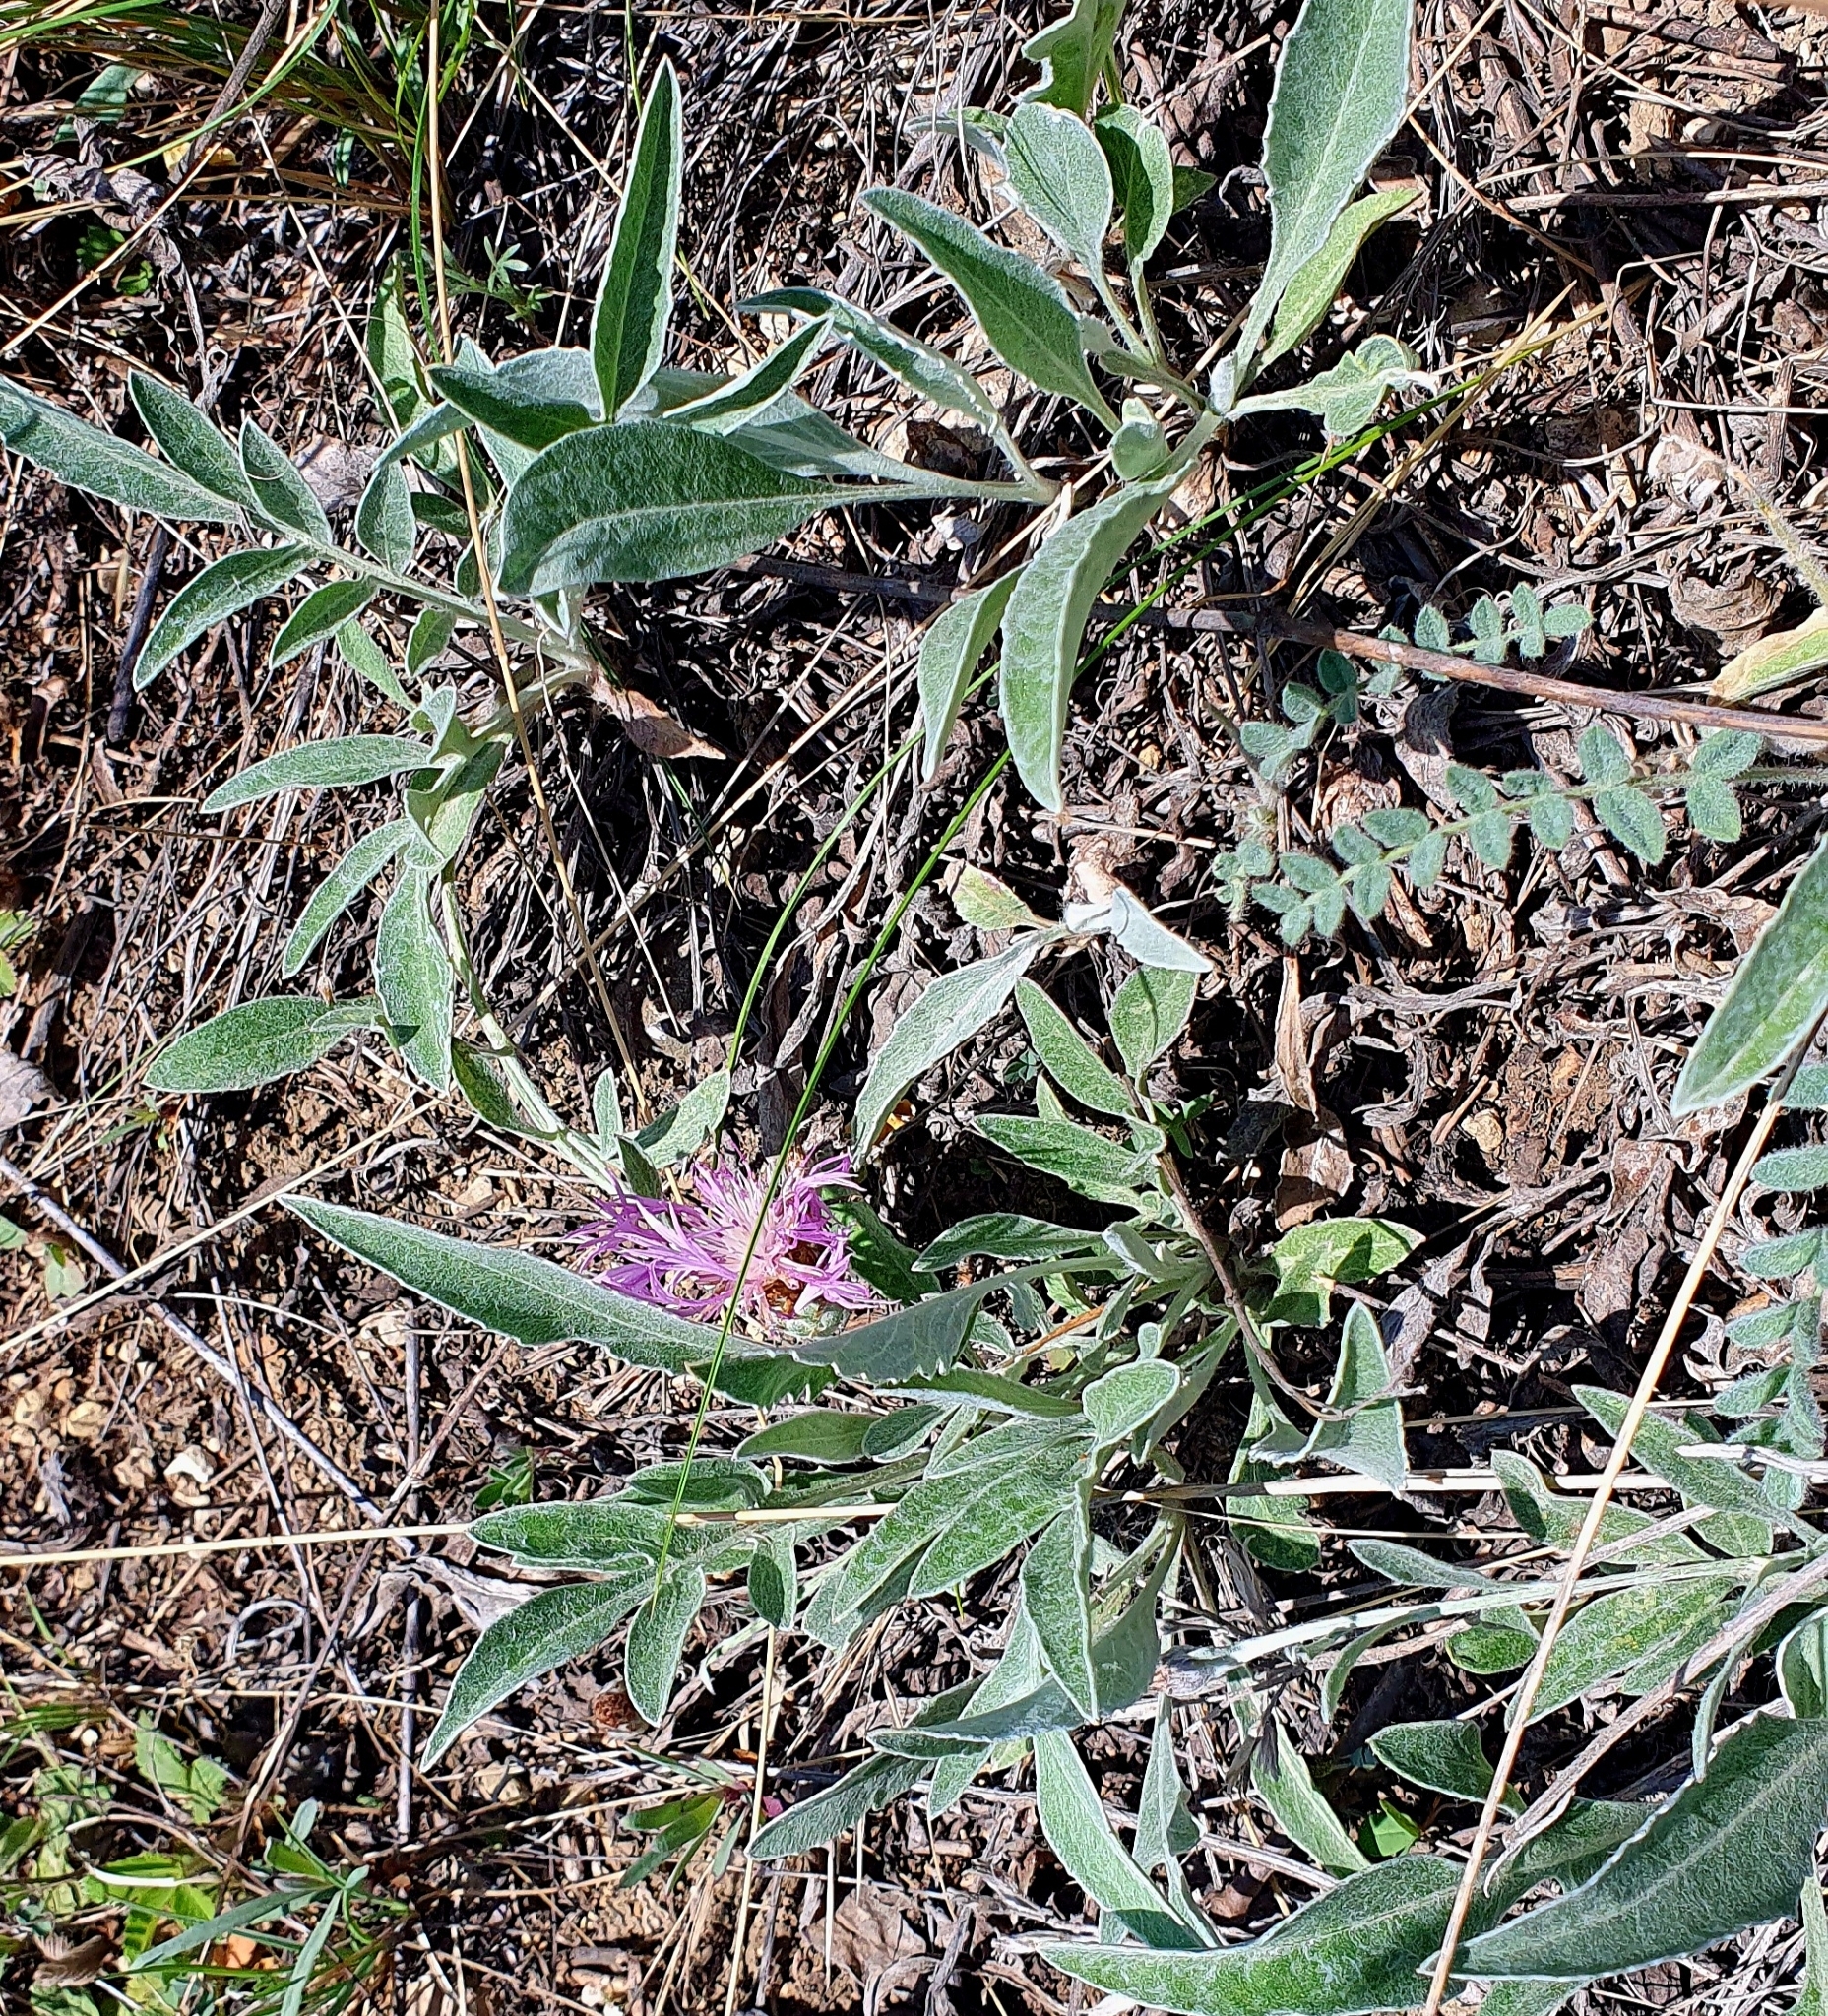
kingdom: Plantae
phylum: Tracheophyta
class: Magnoliopsida
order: Asterales
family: Asteraceae
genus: Psephellus
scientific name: Psephellus marschallianus
